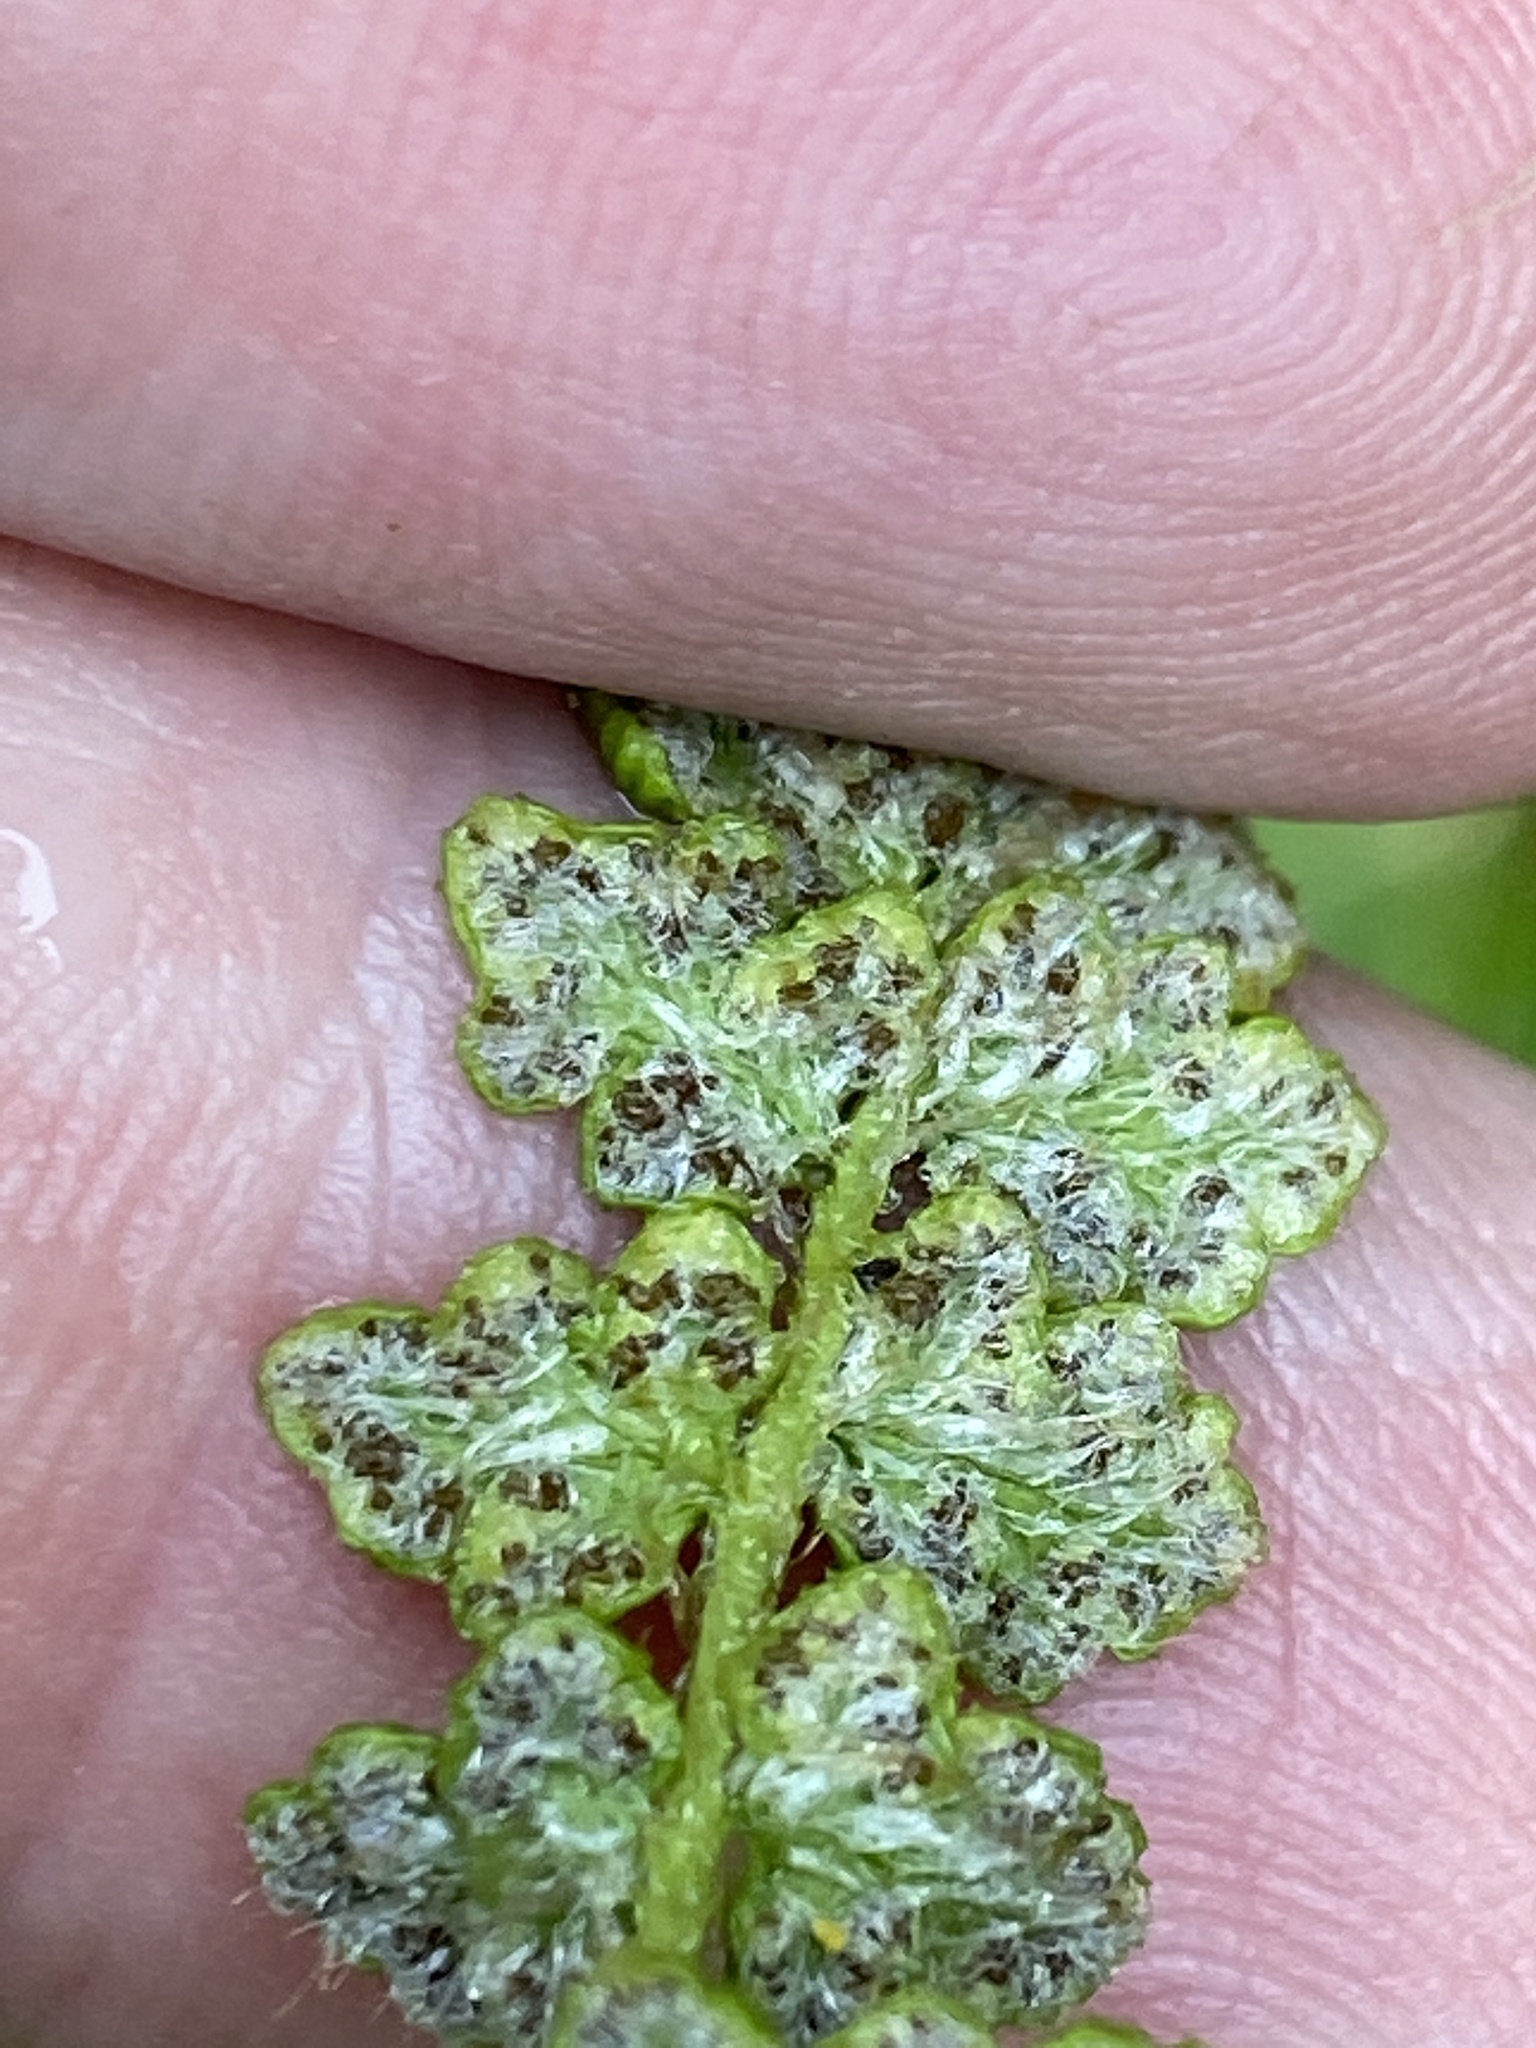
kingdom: Plantae
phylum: Tracheophyta
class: Polypodiopsida
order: Polypodiales
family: Woodsiaceae
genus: Woodsia
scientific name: Woodsia ilvensis
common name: Fragrant woodsia
